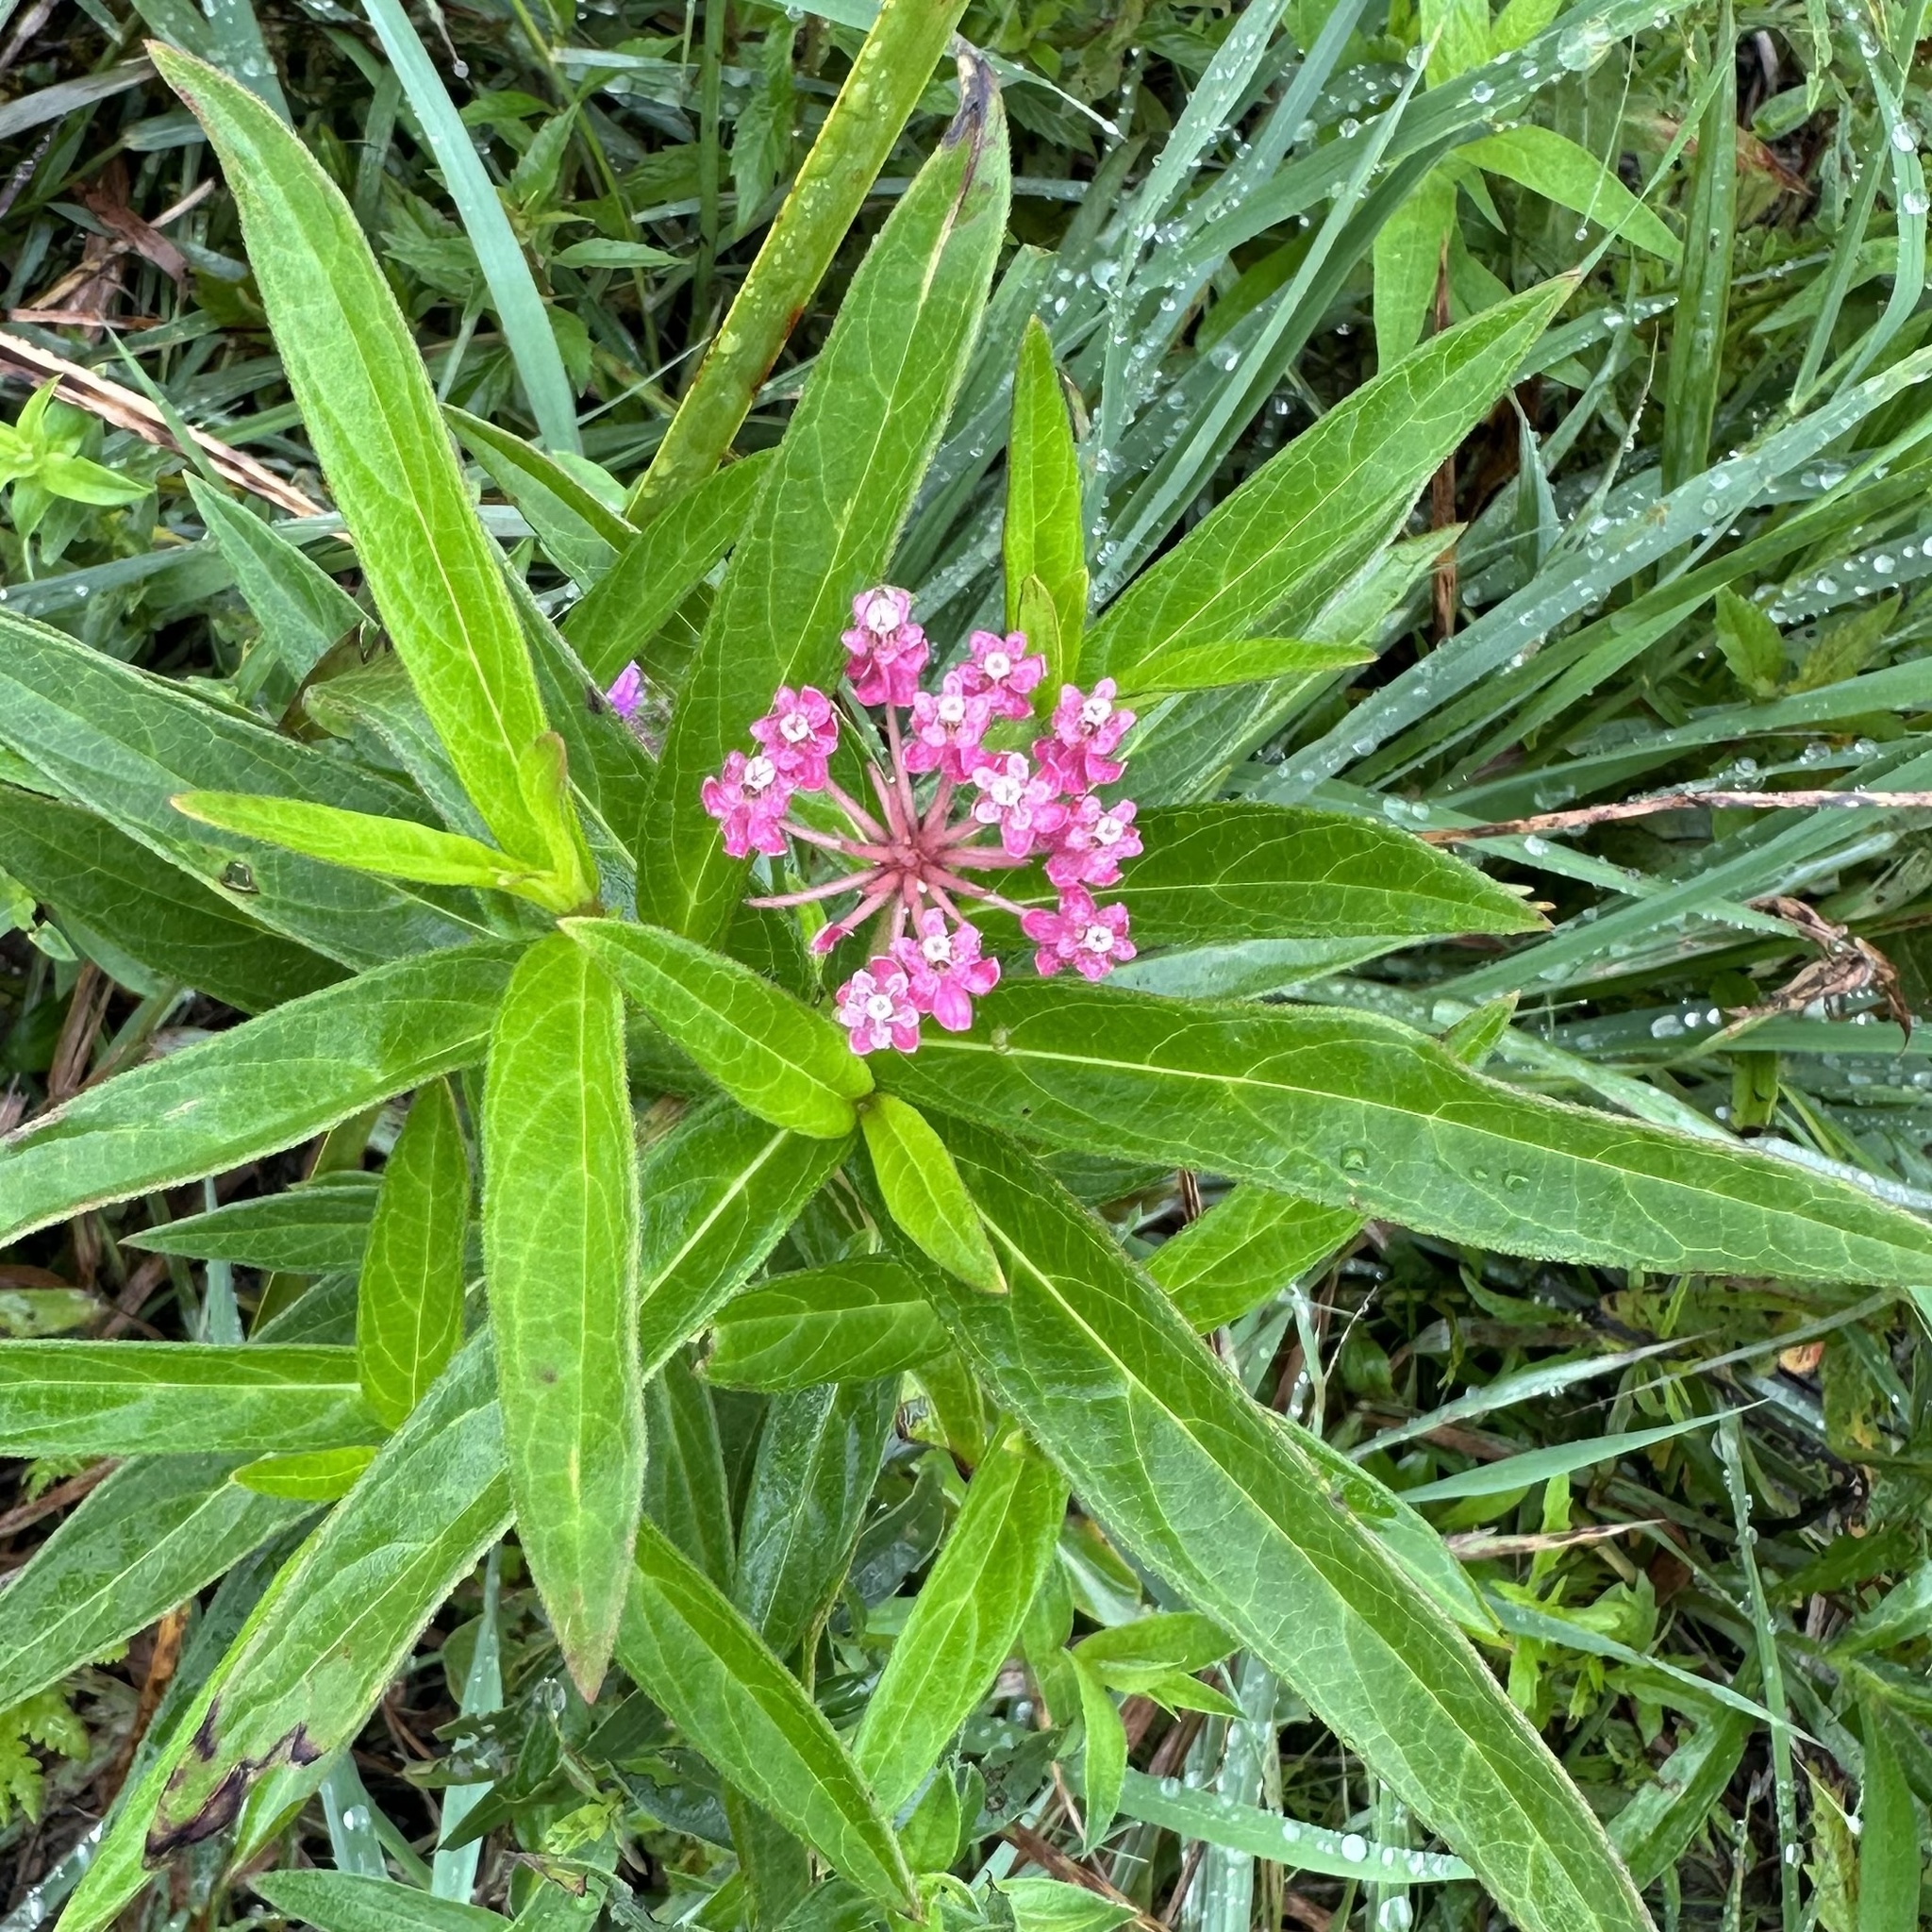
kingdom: Plantae
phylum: Tracheophyta
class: Magnoliopsida
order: Gentianales
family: Apocynaceae
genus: Asclepias
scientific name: Asclepias incarnata
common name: Swamp milkweed
